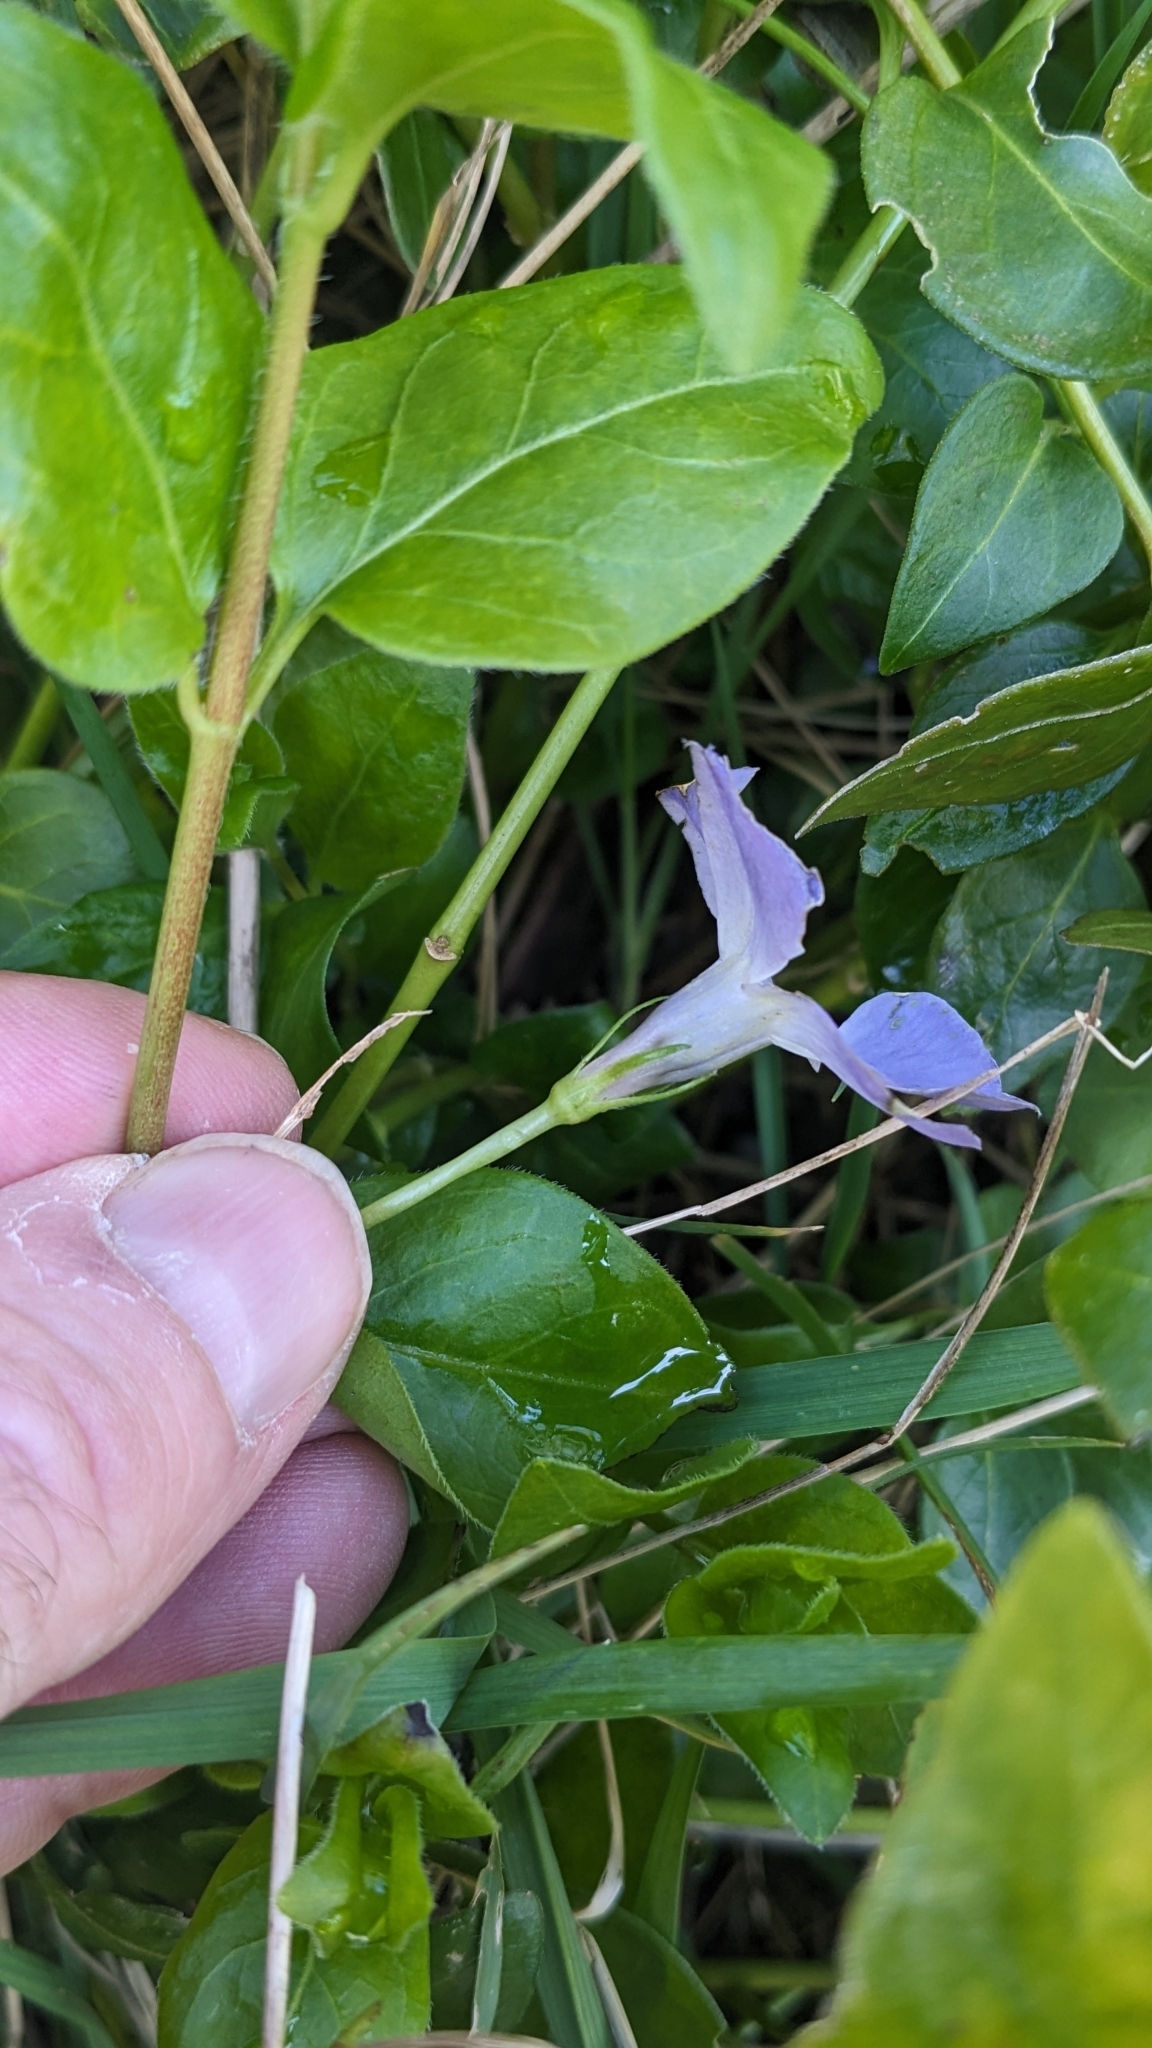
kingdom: Plantae
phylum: Tracheophyta
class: Magnoliopsida
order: Gentianales
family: Apocynaceae
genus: Vinca
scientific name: Vinca major
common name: Greater periwinkle
